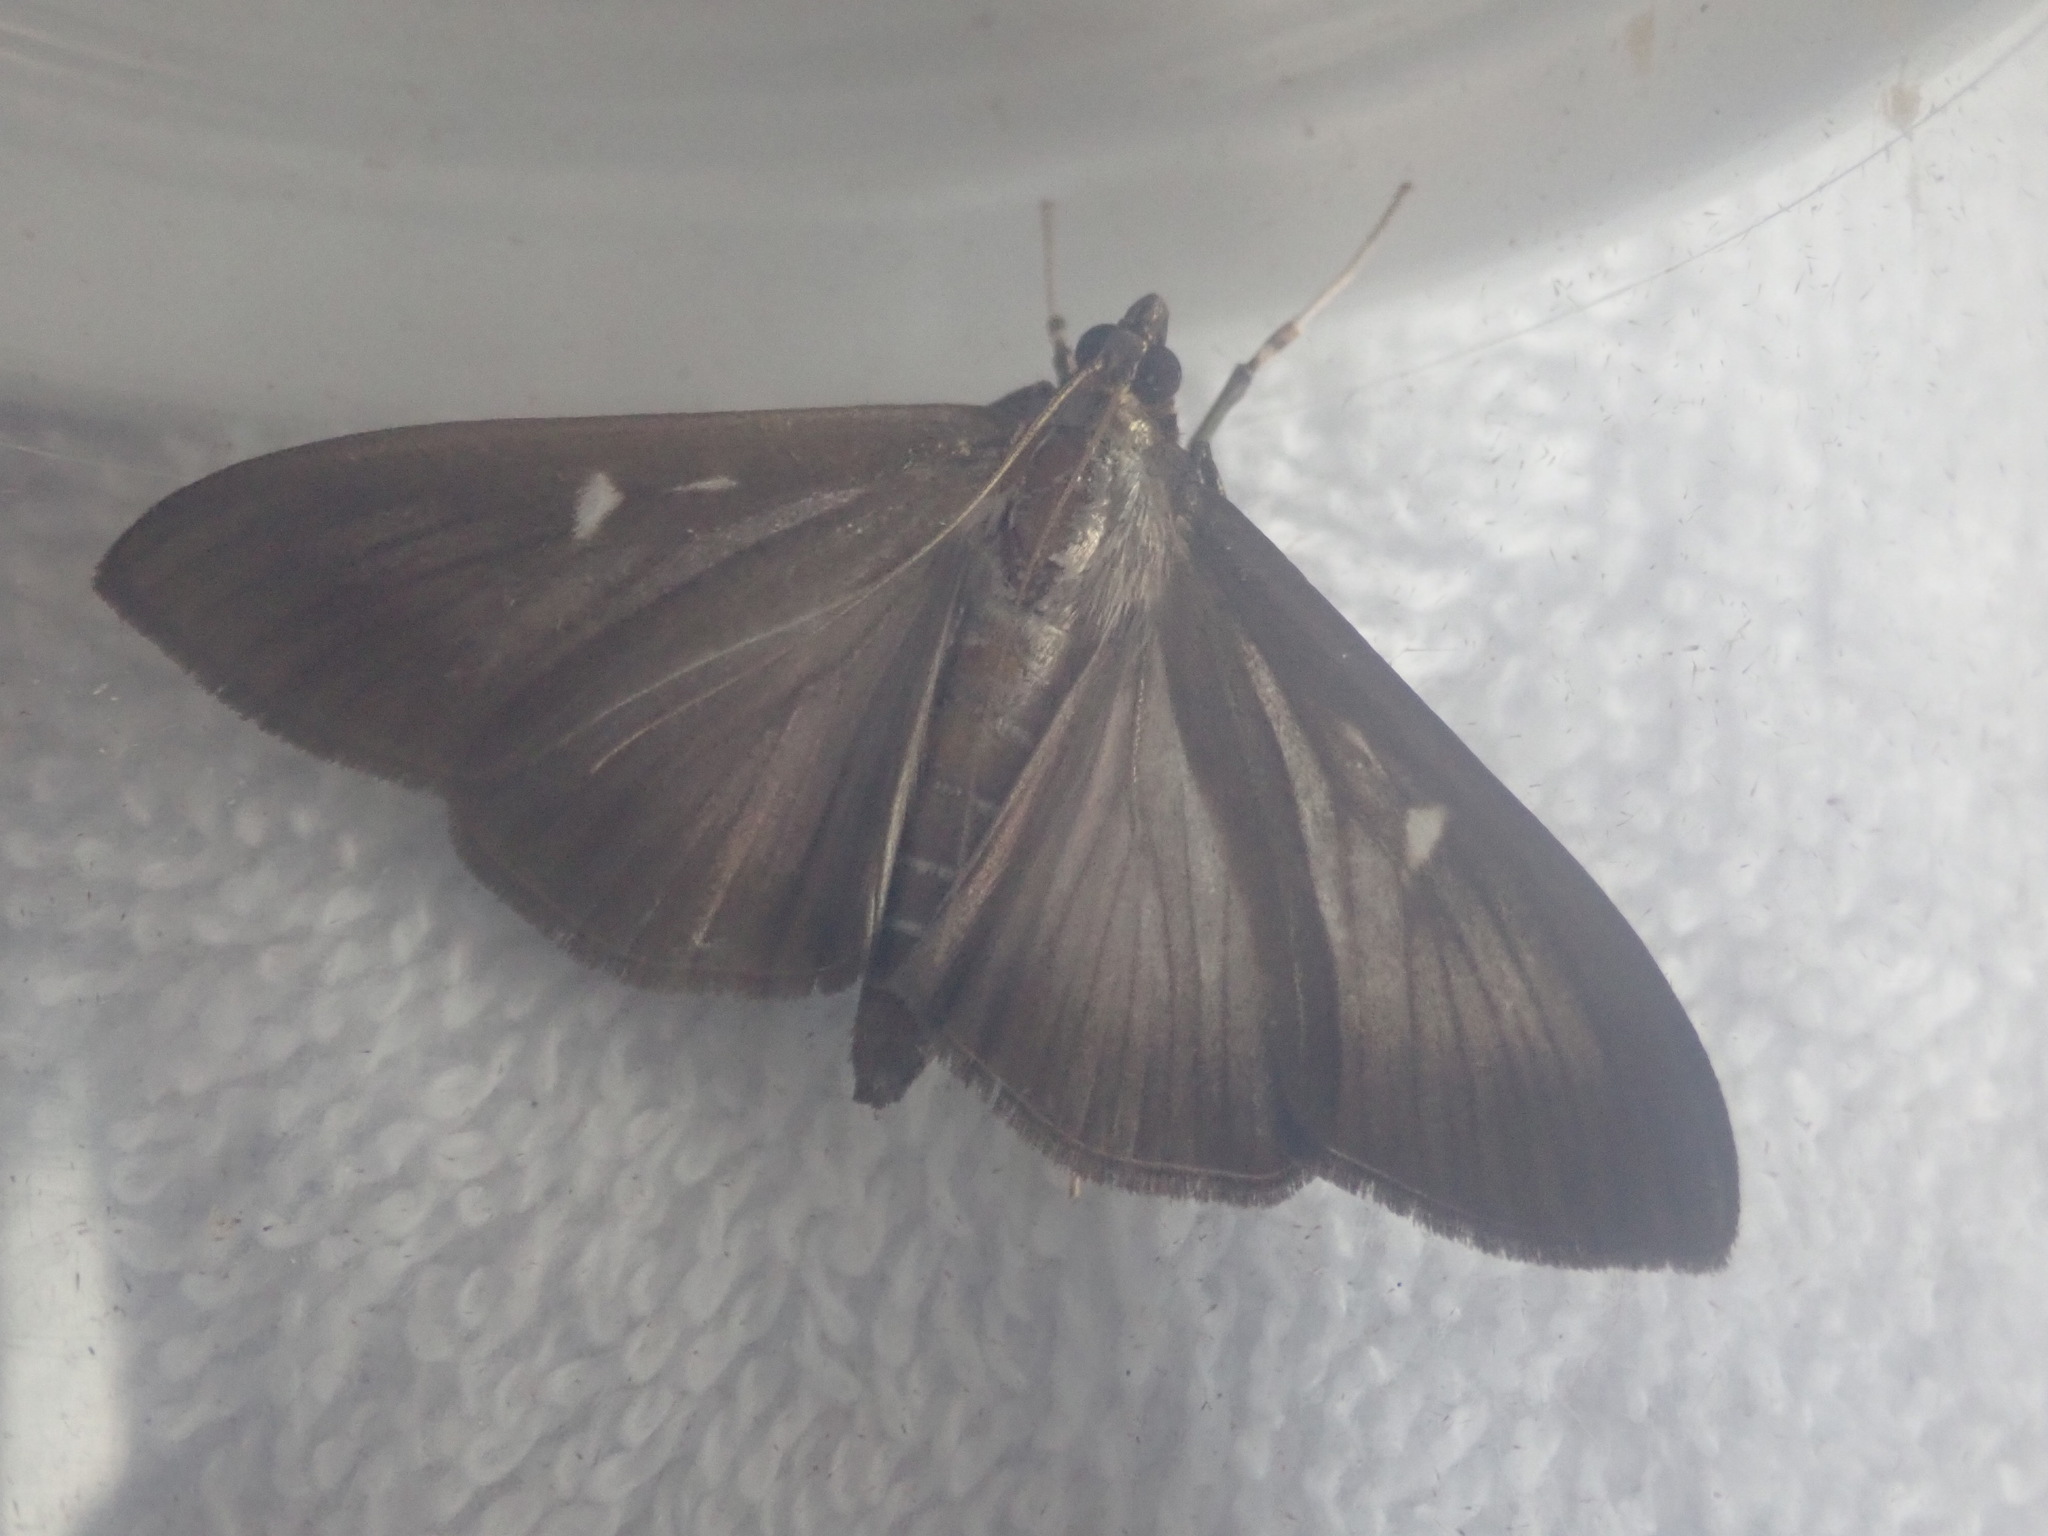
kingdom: Animalia
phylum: Arthropoda
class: Insecta
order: Lepidoptera
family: Crambidae
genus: Cydalima
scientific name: Cydalima perspectalis
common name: Box tree moth
